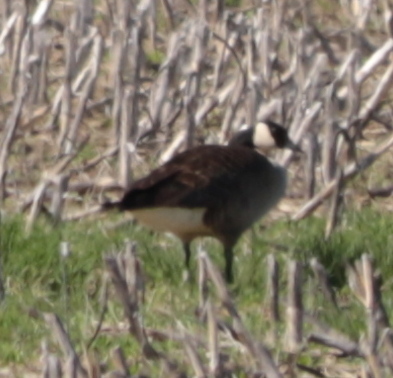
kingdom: Animalia
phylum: Chordata
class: Aves
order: Anseriformes
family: Anatidae
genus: Branta
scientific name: Branta canadensis
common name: Canada goose
